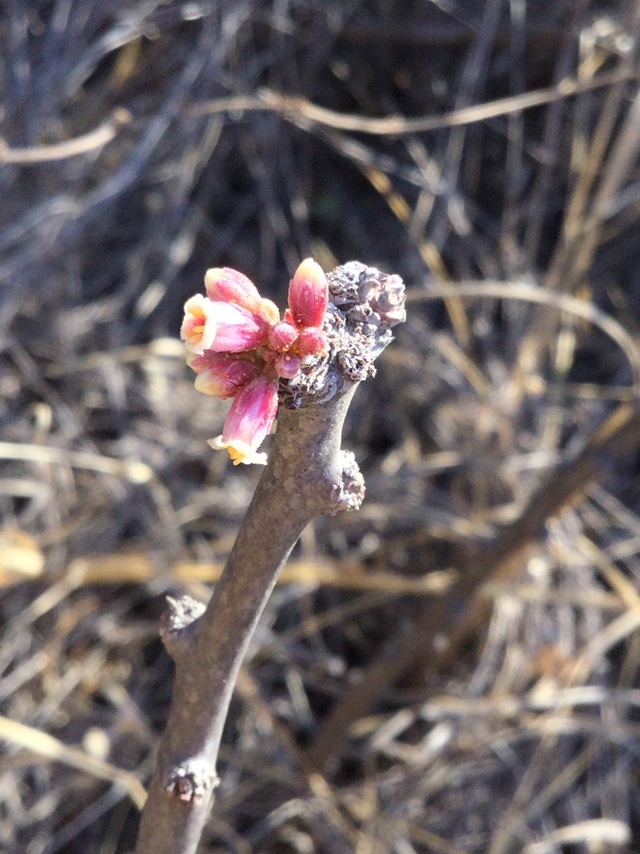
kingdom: Plantae
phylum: Tracheophyta
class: Magnoliopsida
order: Malpighiales
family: Euphorbiaceae
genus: Jatropha
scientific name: Jatropha dioica
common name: Leatherstem
